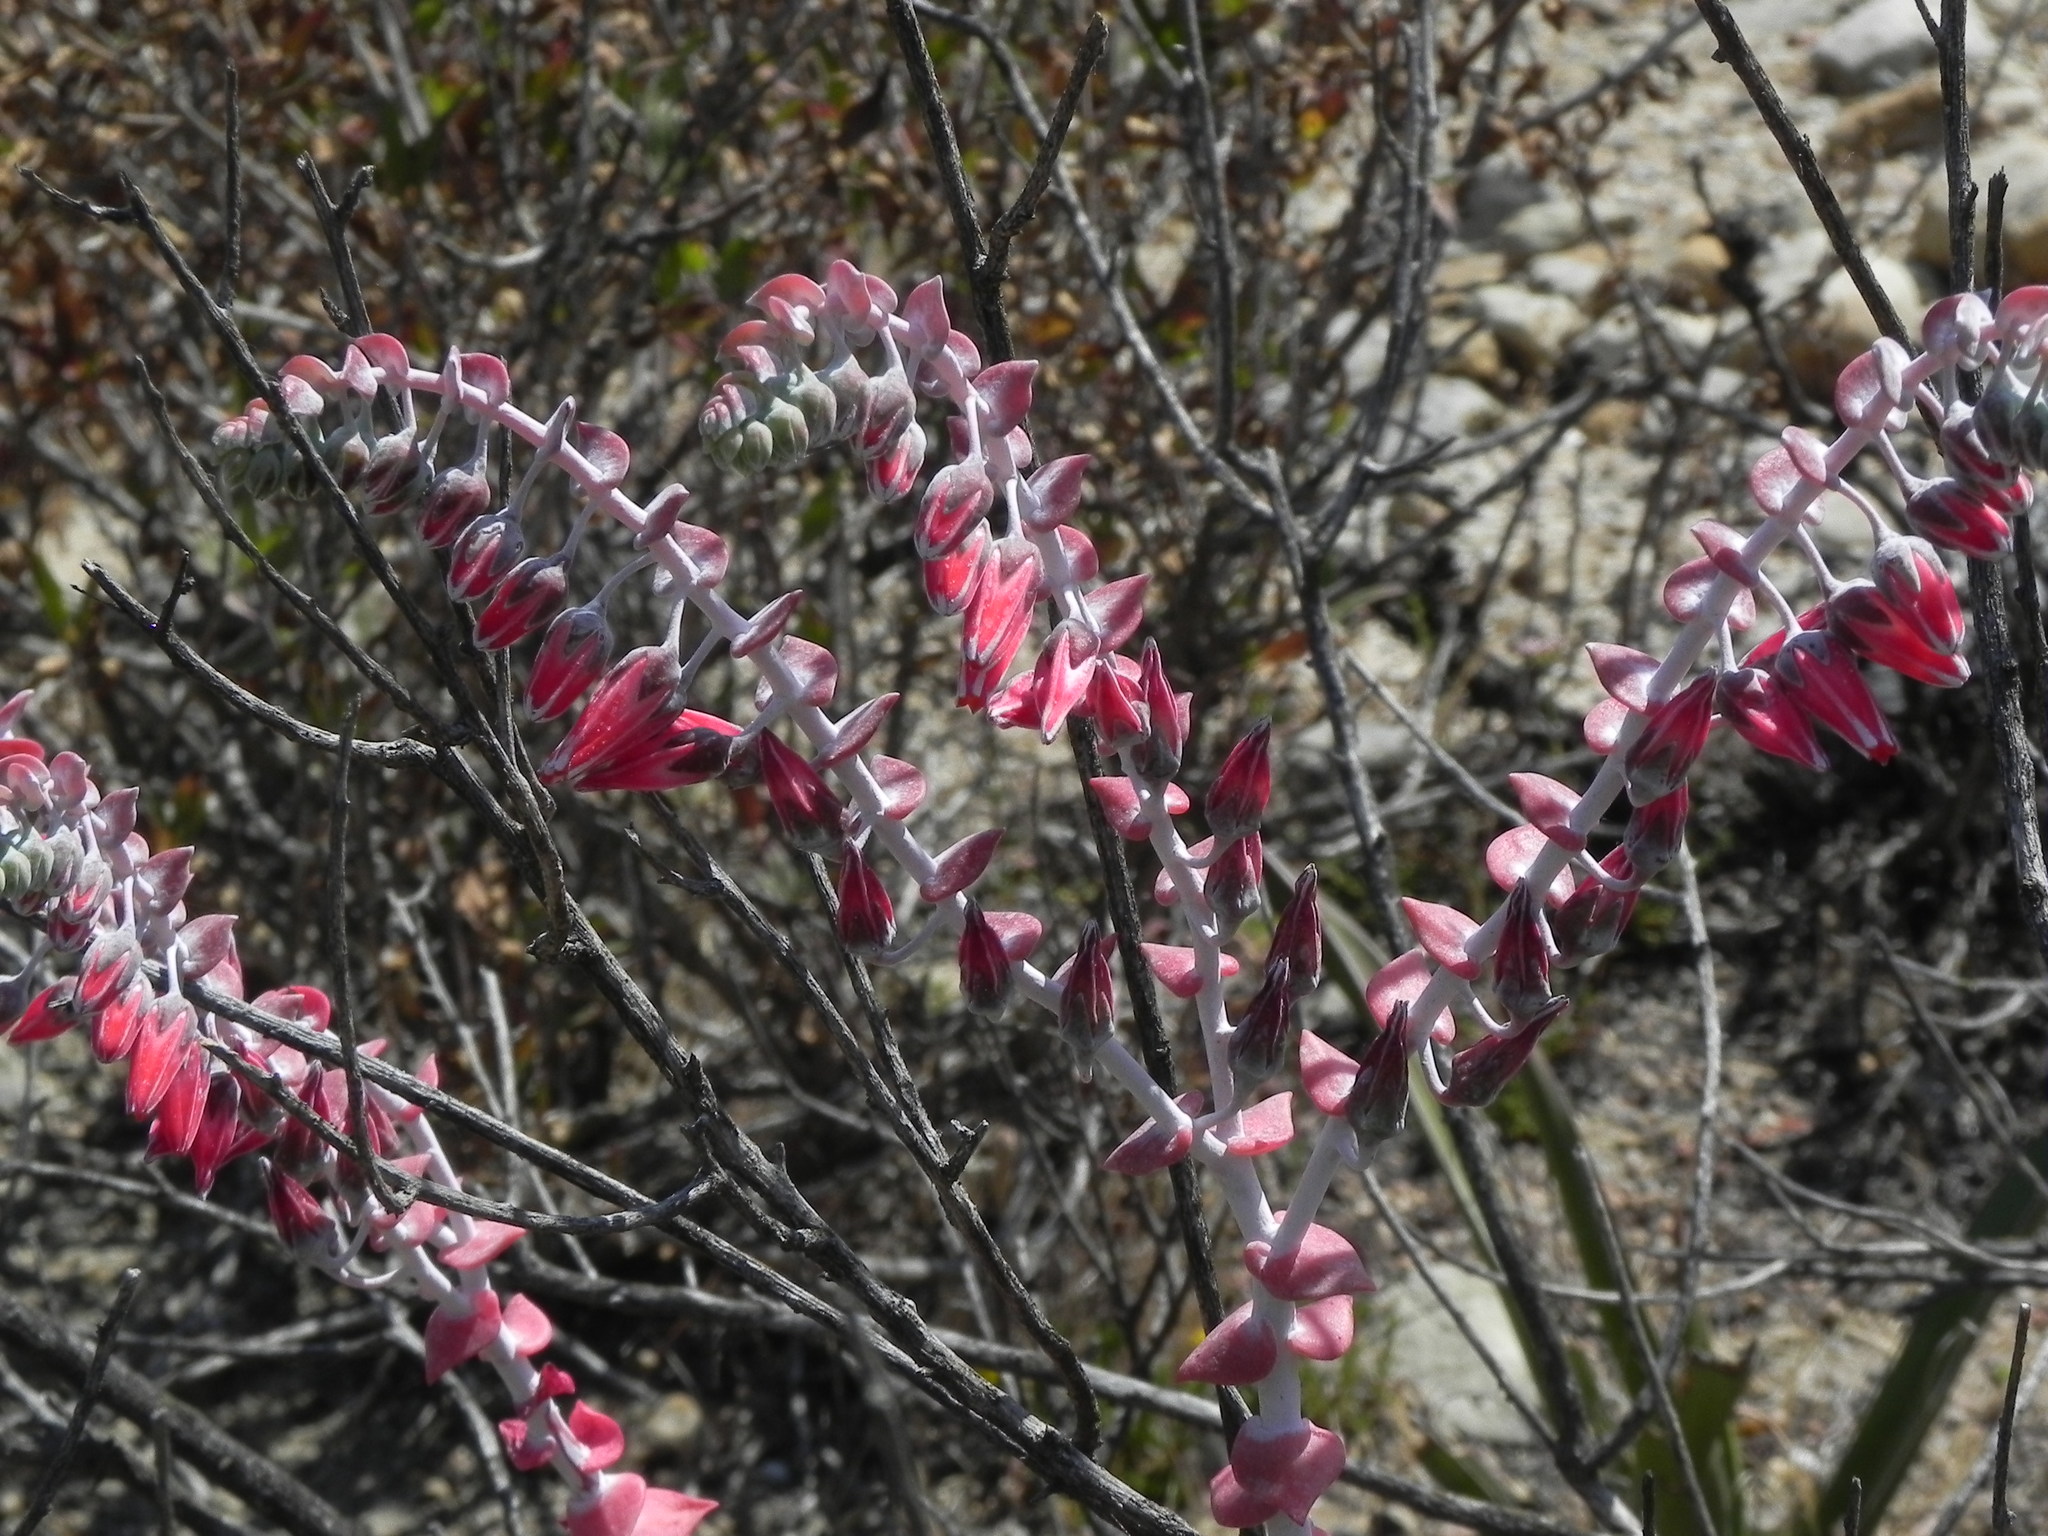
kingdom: Plantae
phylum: Tracheophyta
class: Magnoliopsida
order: Saxifragales
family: Crassulaceae
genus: Dudleya
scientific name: Dudleya pulverulenta
